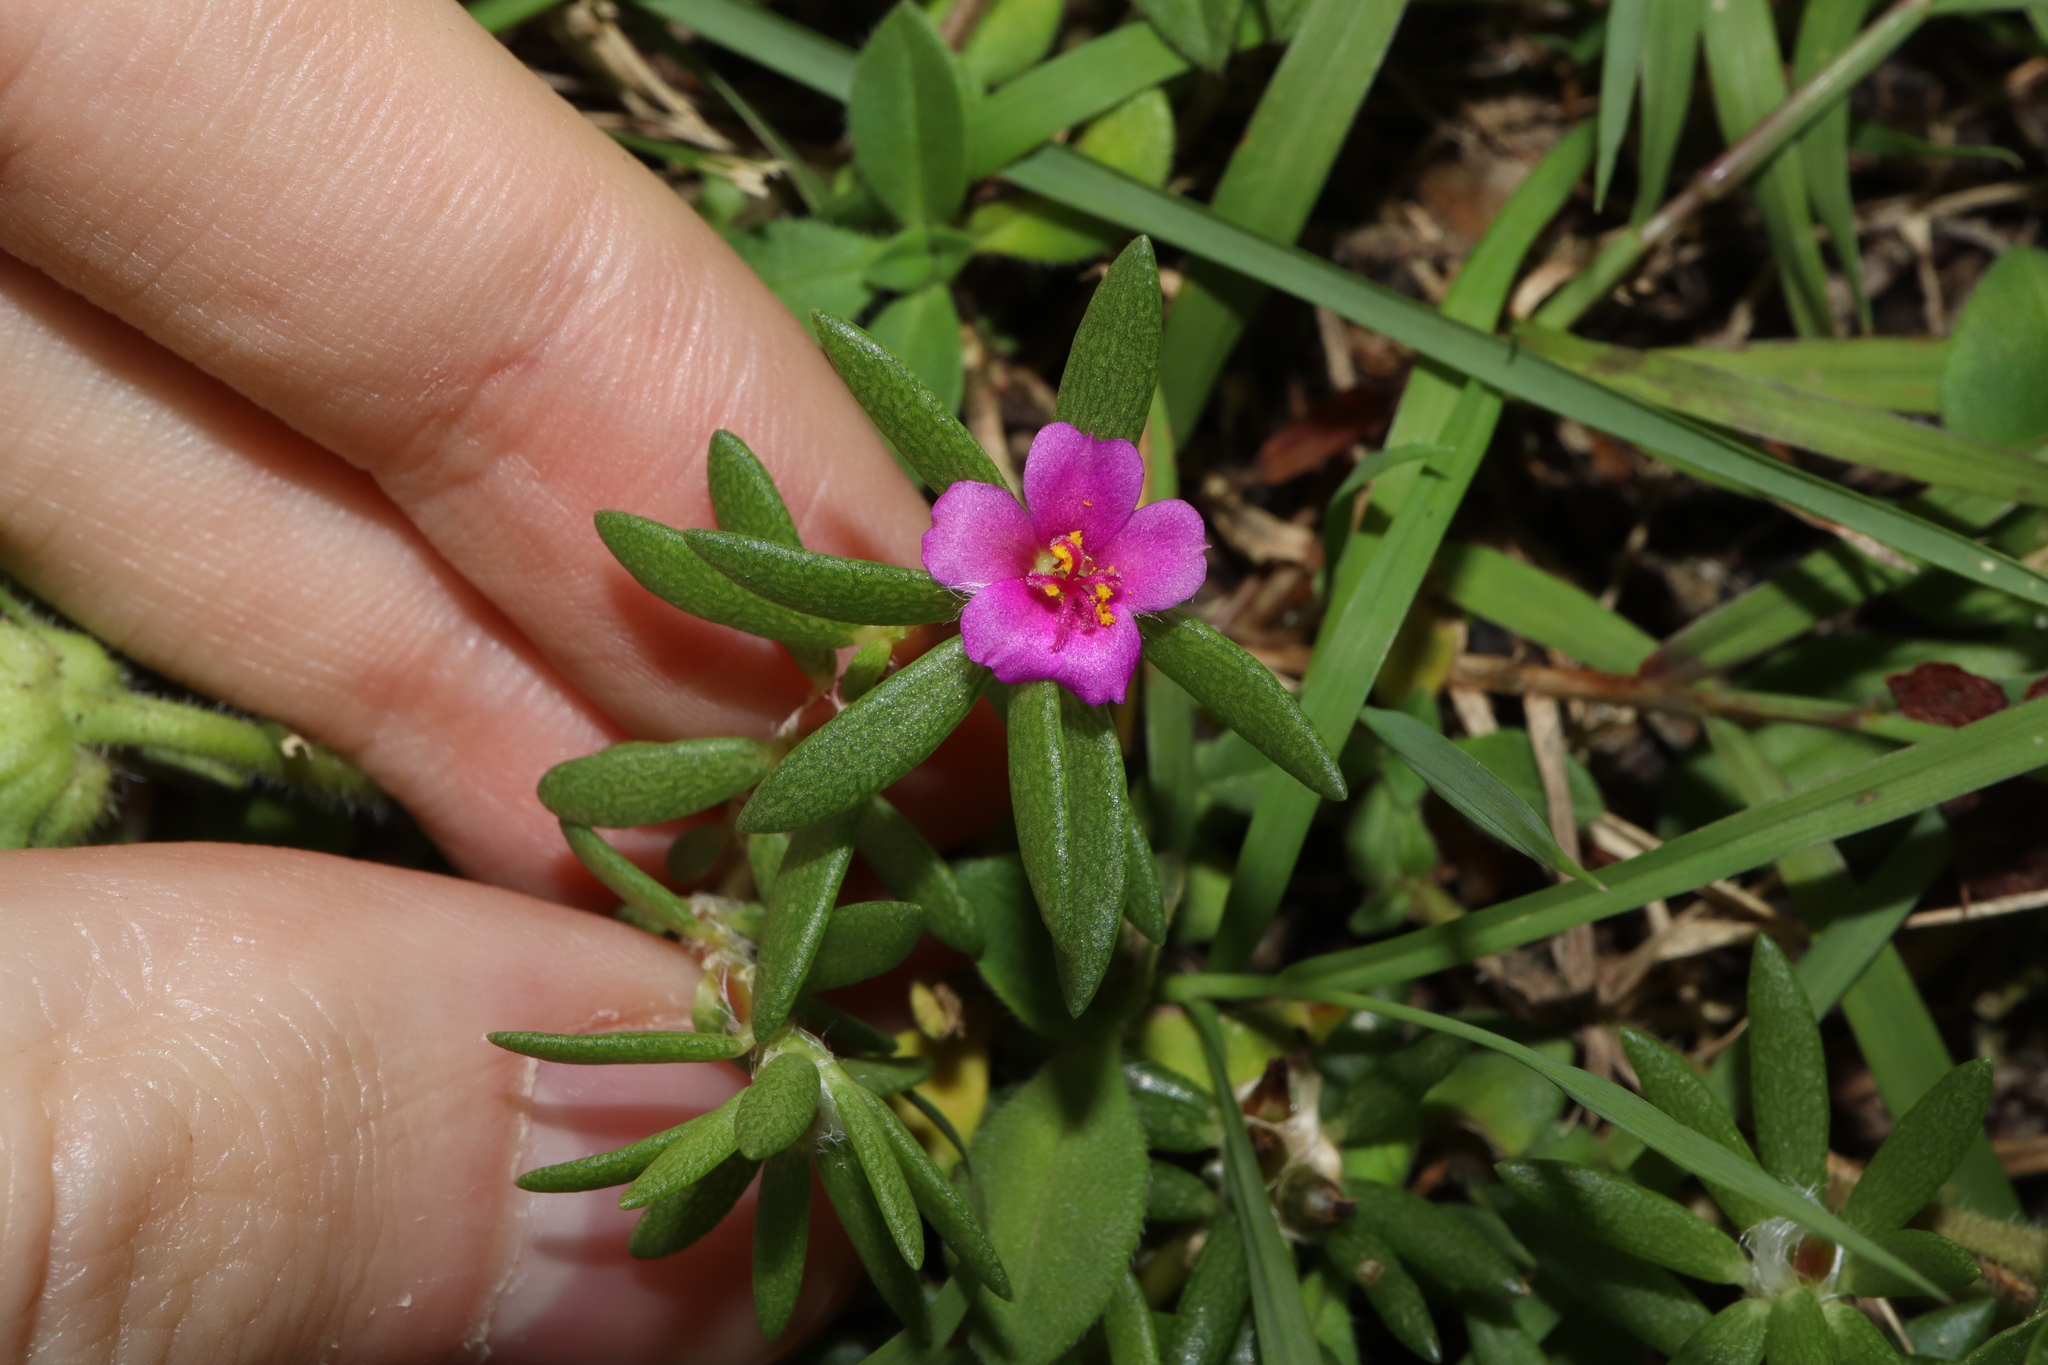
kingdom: Plantae
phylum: Tracheophyta
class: Magnoliopsida
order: Caryophyllales
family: Portulacaceae
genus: Portulaca
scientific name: Portulaca pilosa
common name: Kiss me quick
